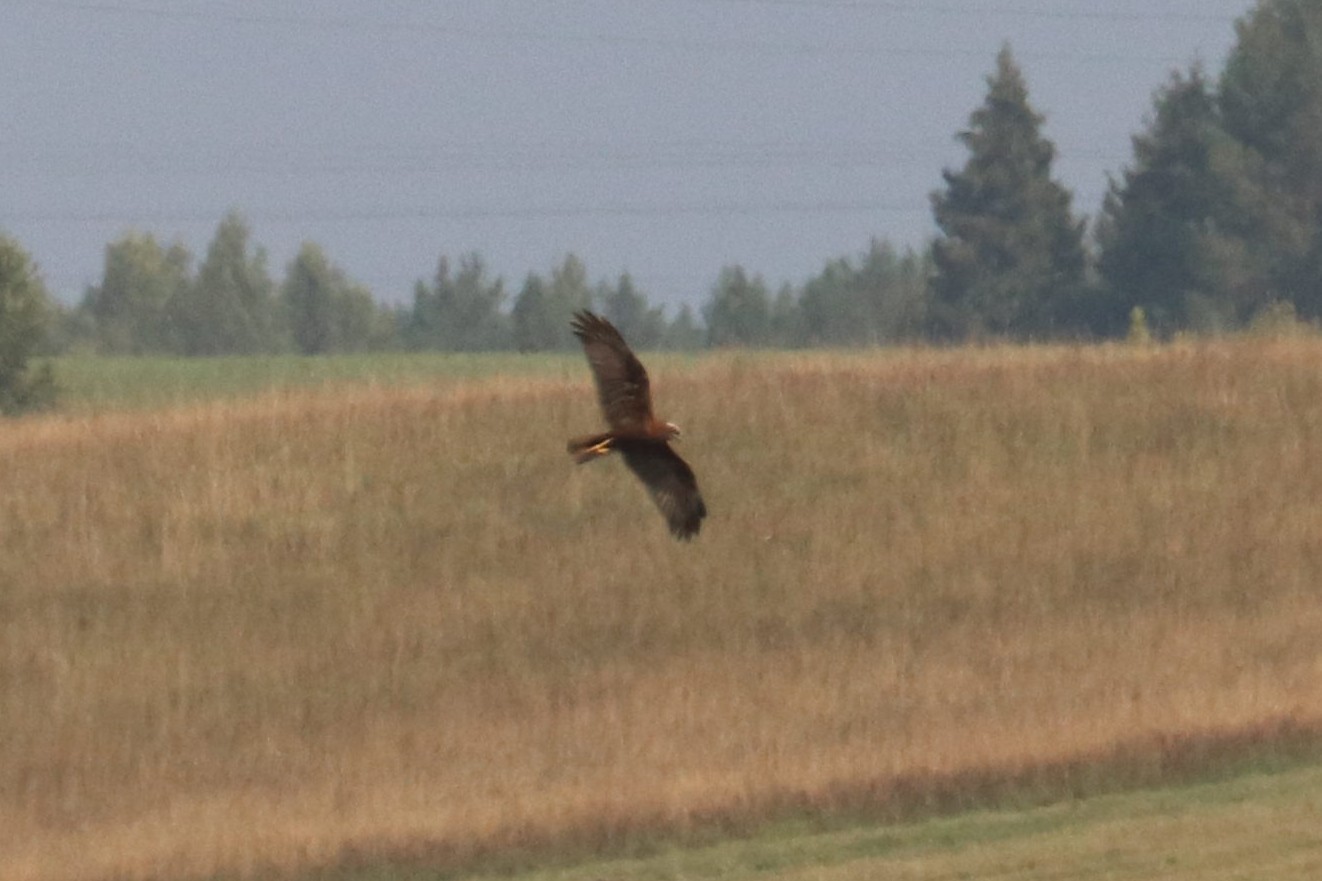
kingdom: Animalia
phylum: Chordata
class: Aves
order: Accipitriformes
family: Accipitridae
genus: Circus
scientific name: Circus aeruginosus
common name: Western marsh harrier
